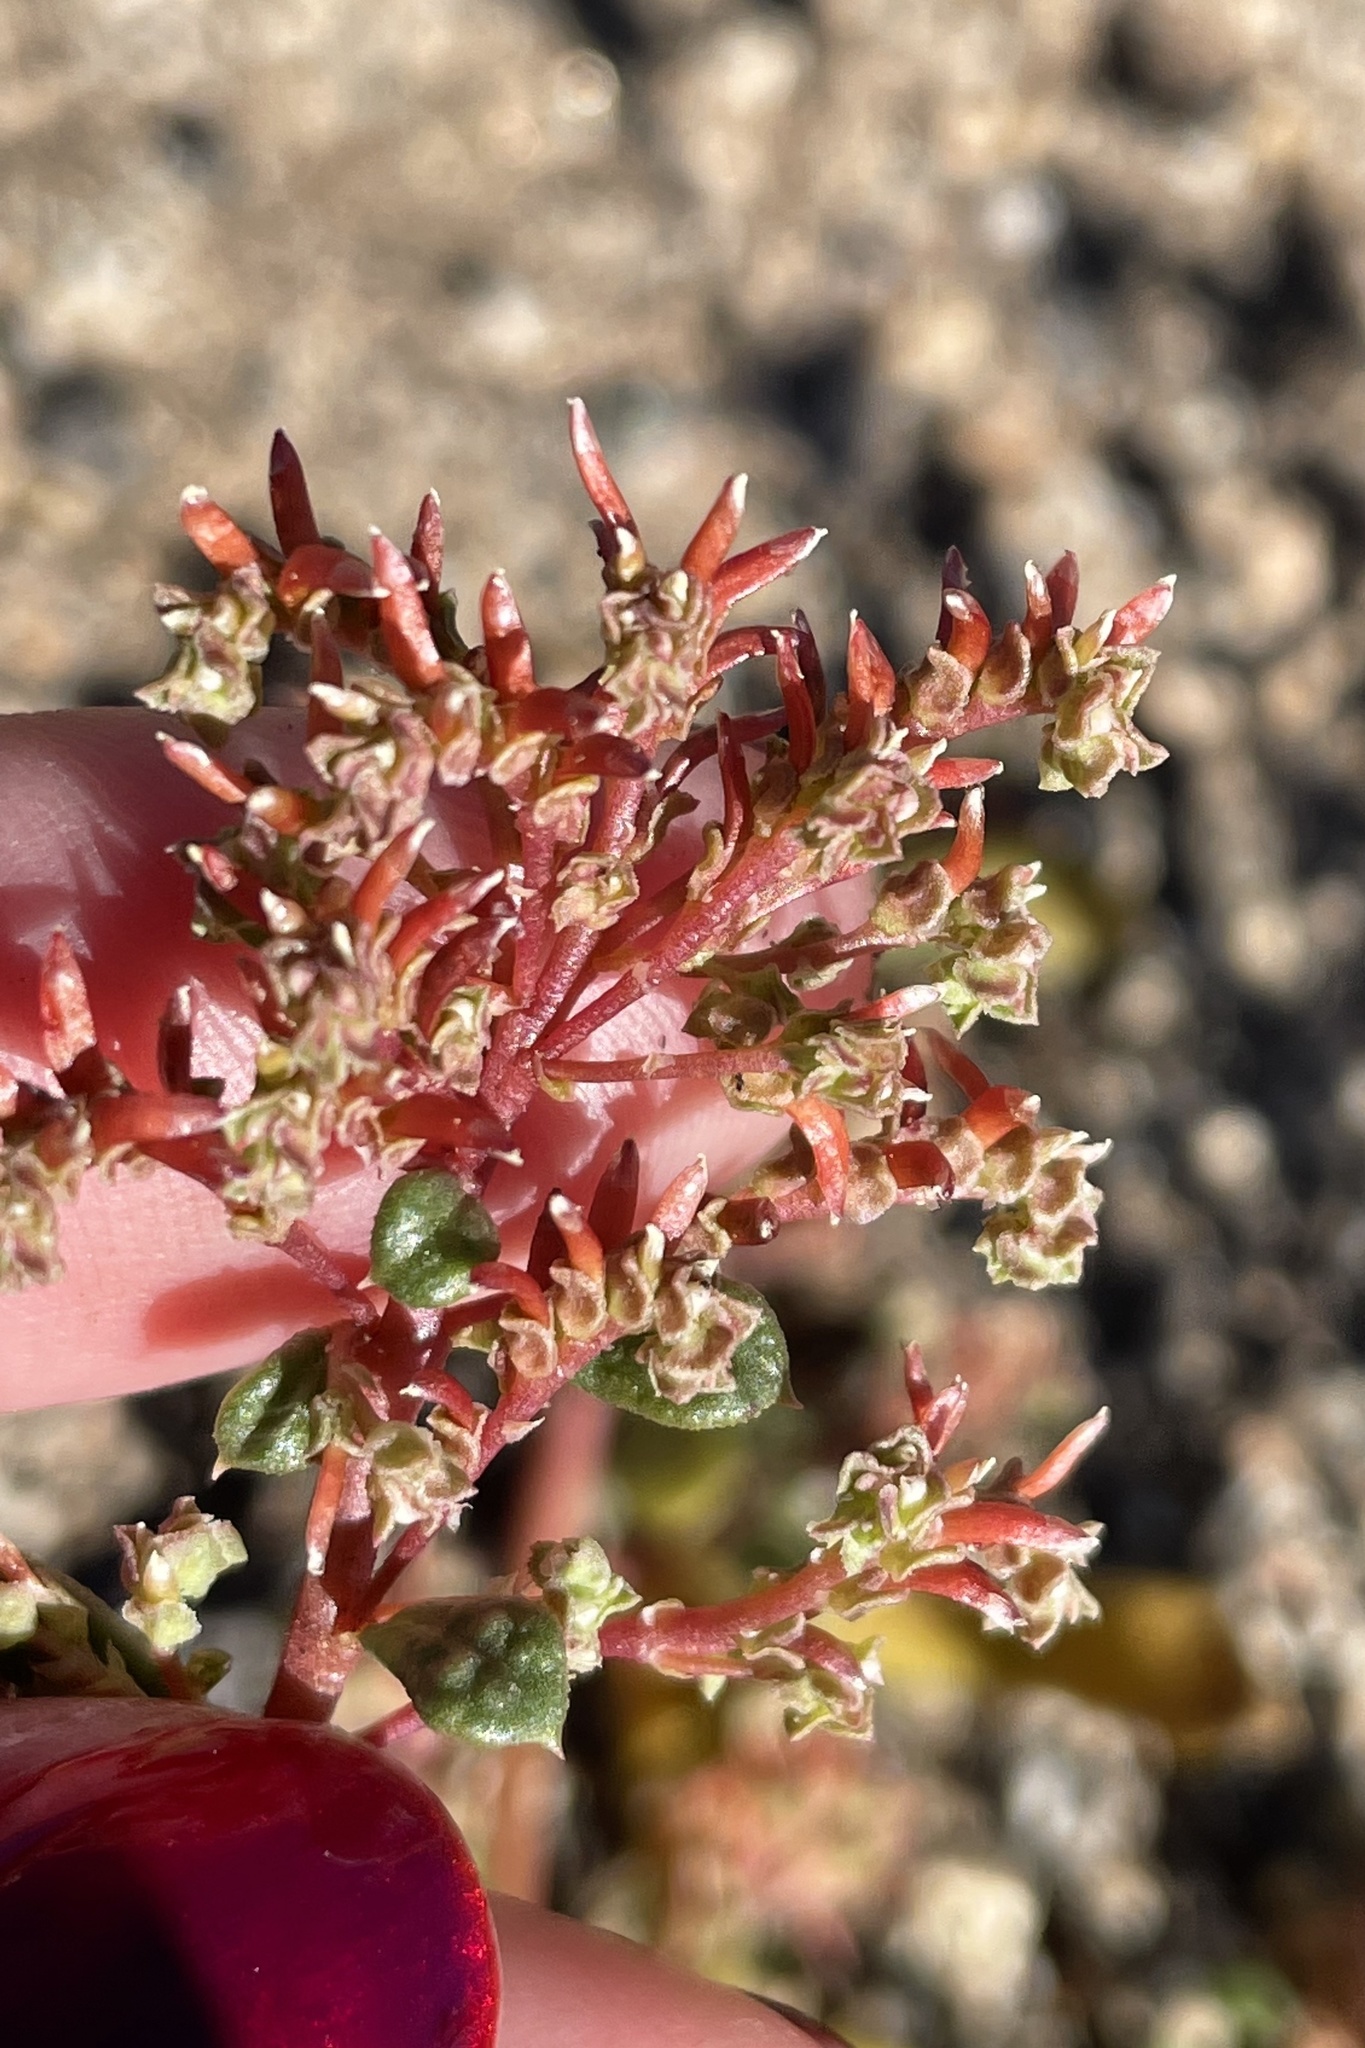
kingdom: Plantae
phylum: Tracheophyta
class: Magnoliopsida
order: Caryophyllales
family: Montiaceae
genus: Calyptridium
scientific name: Calyptridium monandrum
